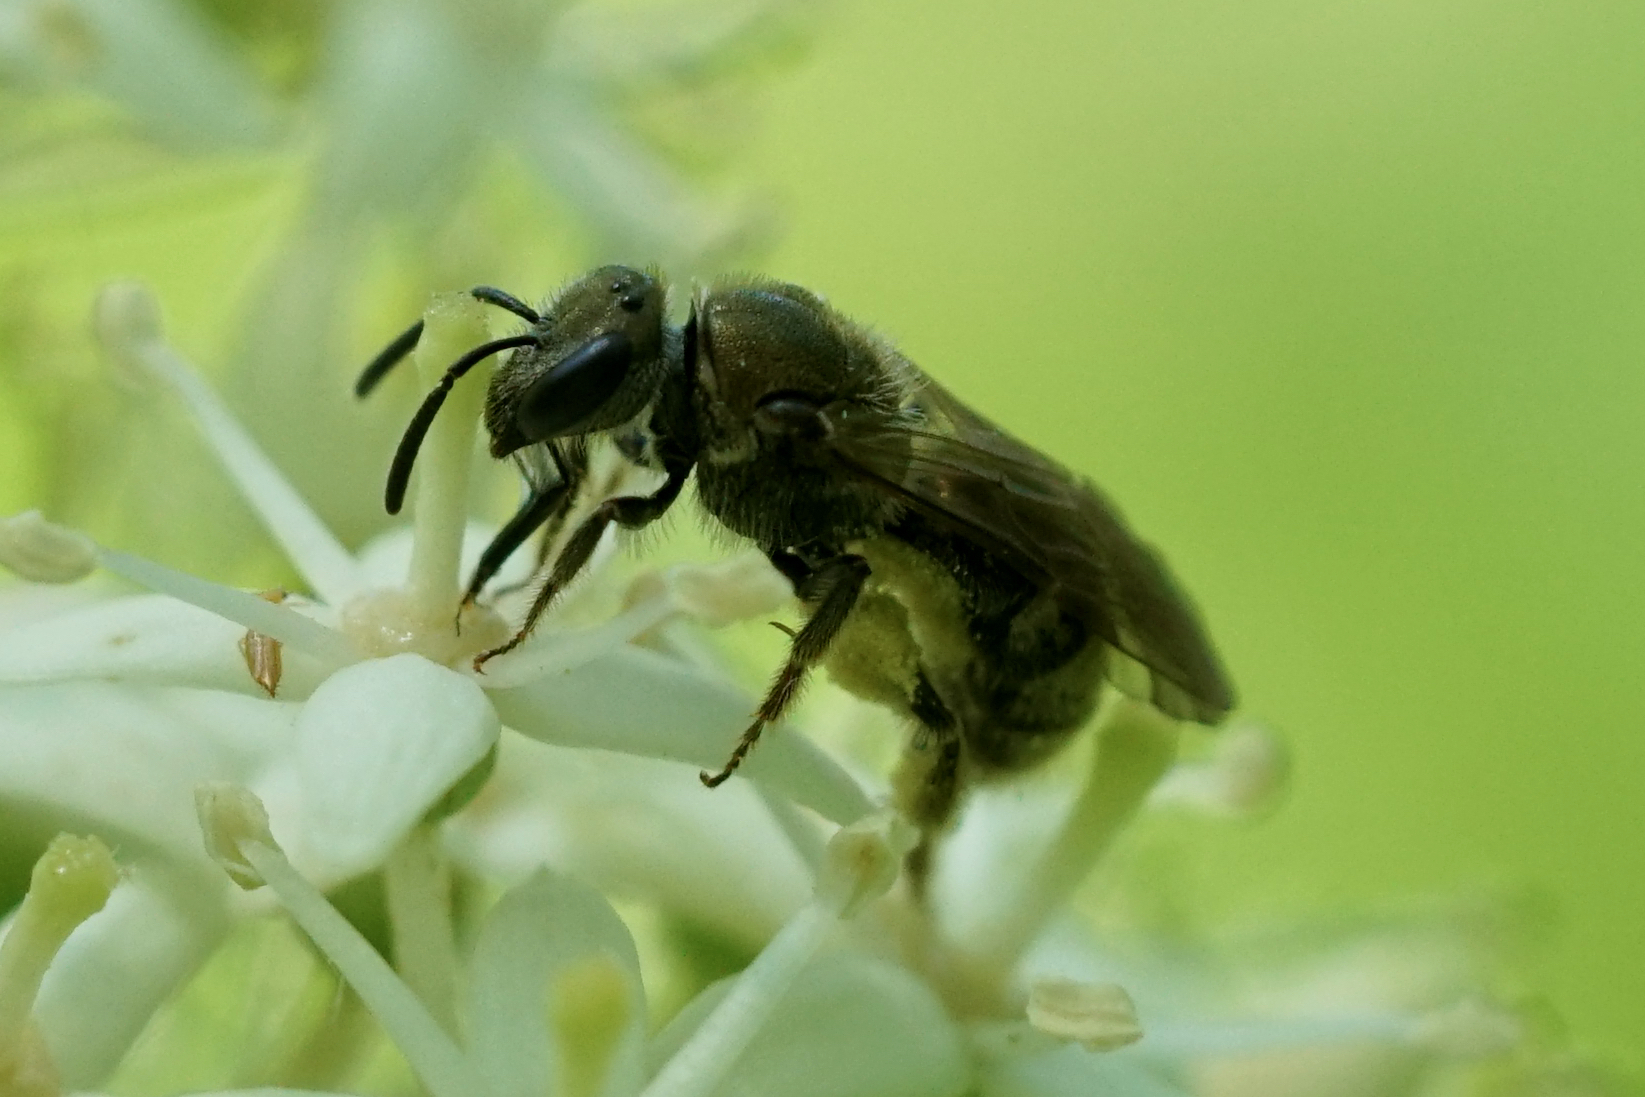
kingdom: Animalia
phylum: Arthropoda
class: Insecta
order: Hymenoptera
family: Halictidae
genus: Dialictus
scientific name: Dialictus
